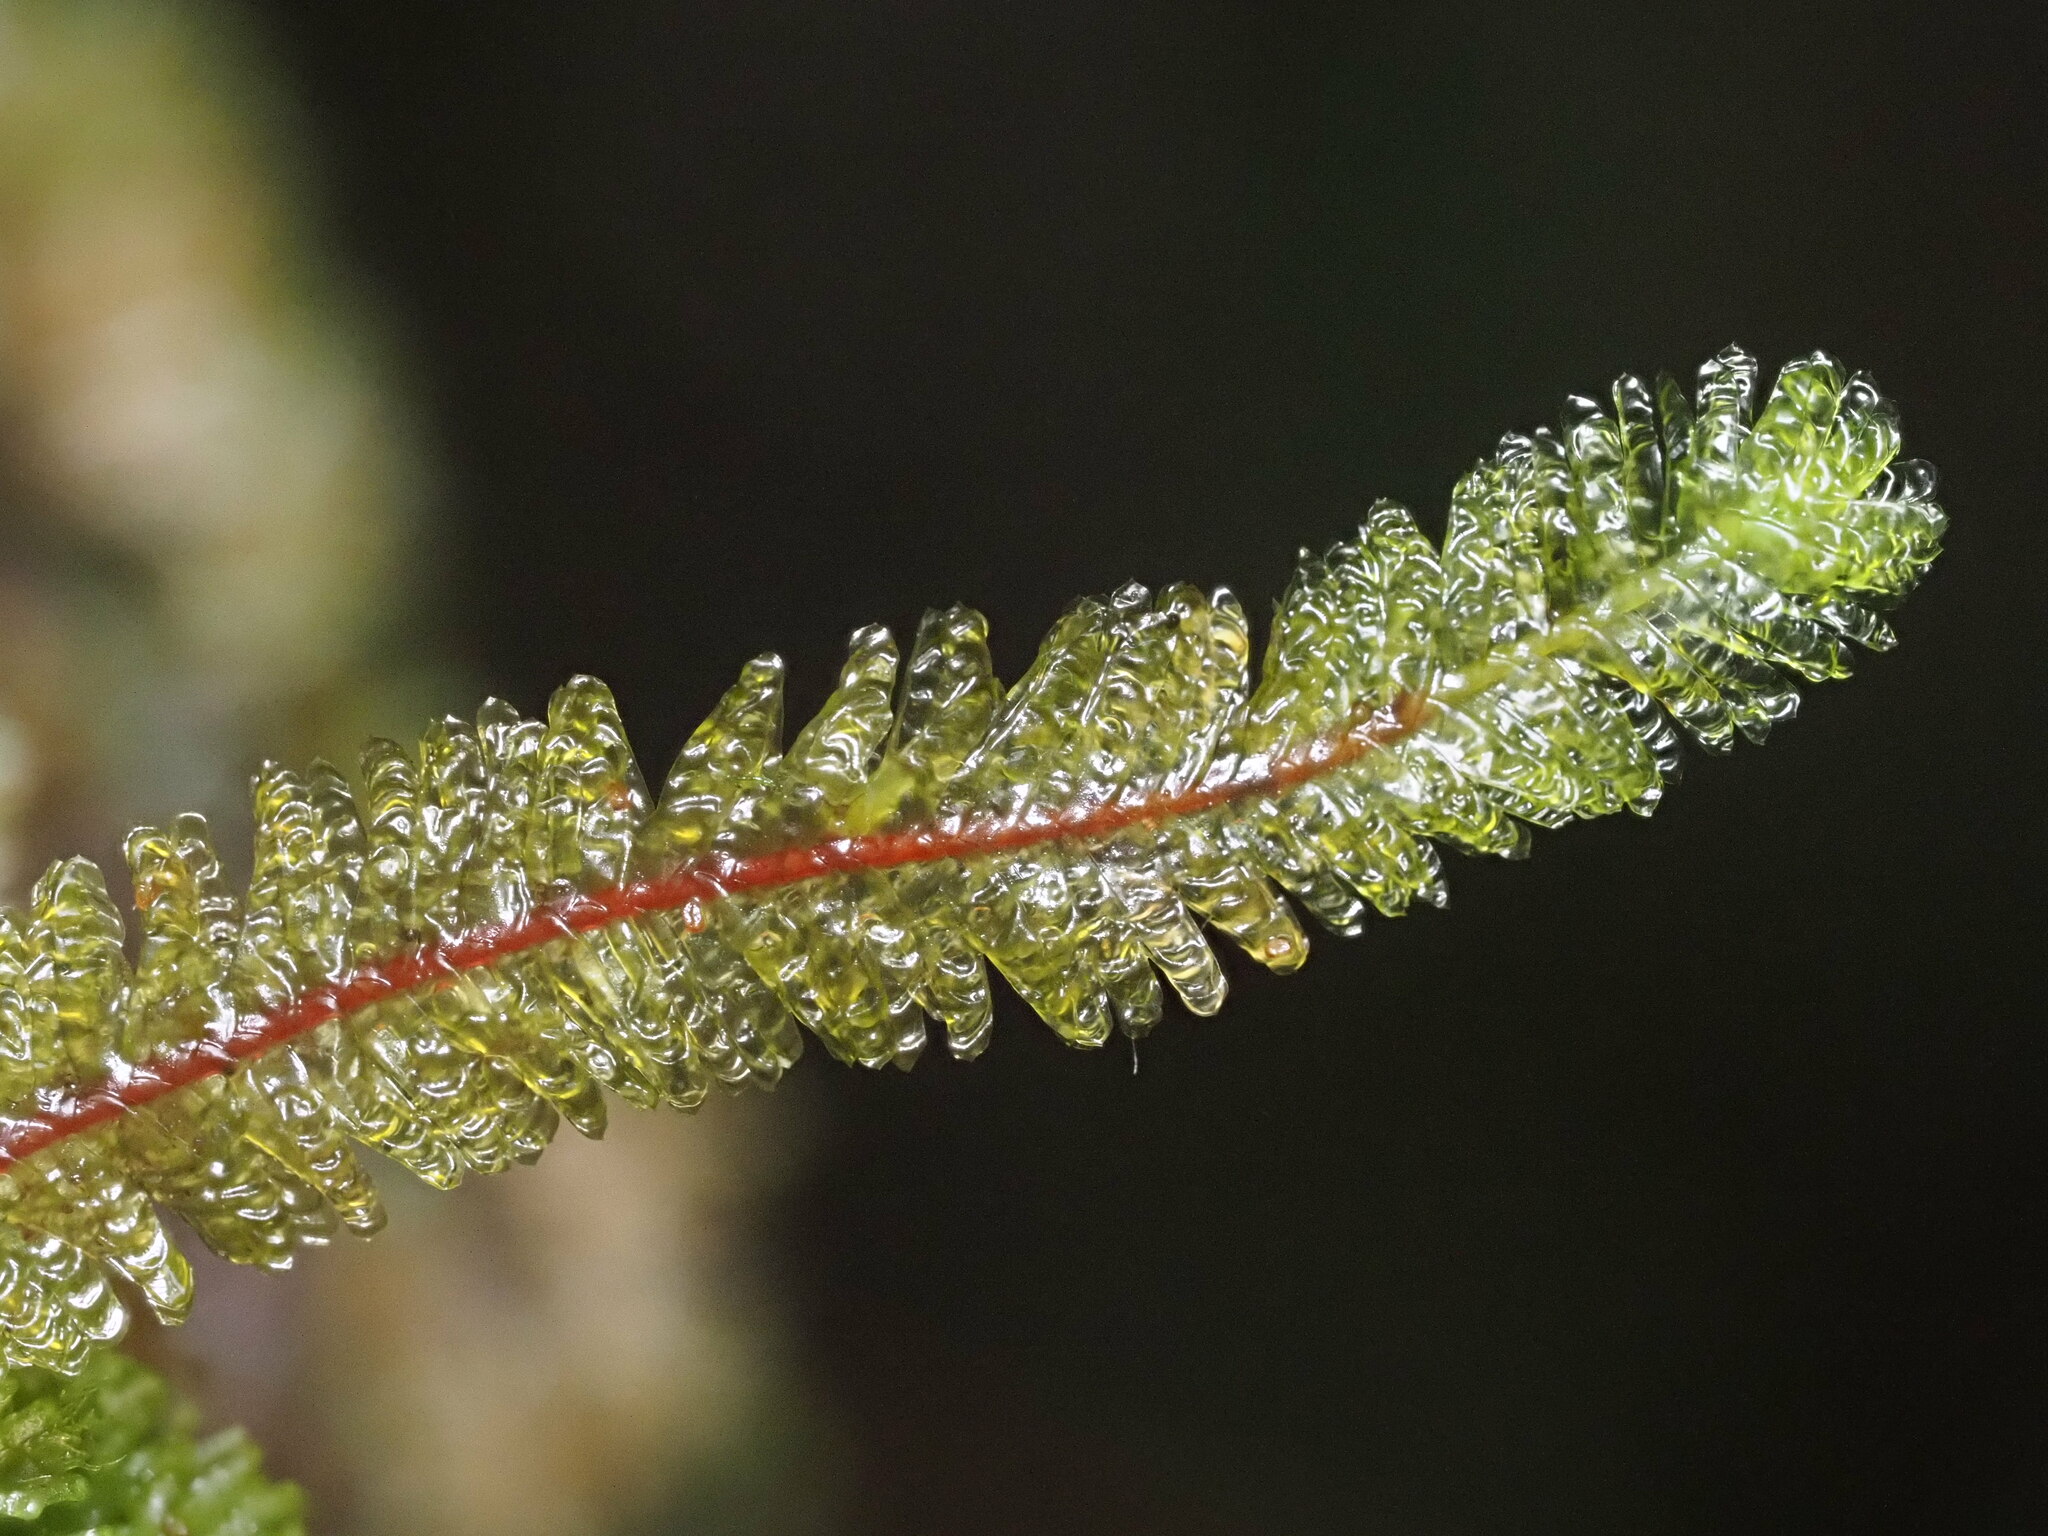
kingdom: Plantae
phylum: Bryophyta
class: Bryopsida
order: Hypnales
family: Neckeraceae
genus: Baldwiniella
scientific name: Baldwiniella kealeensis
